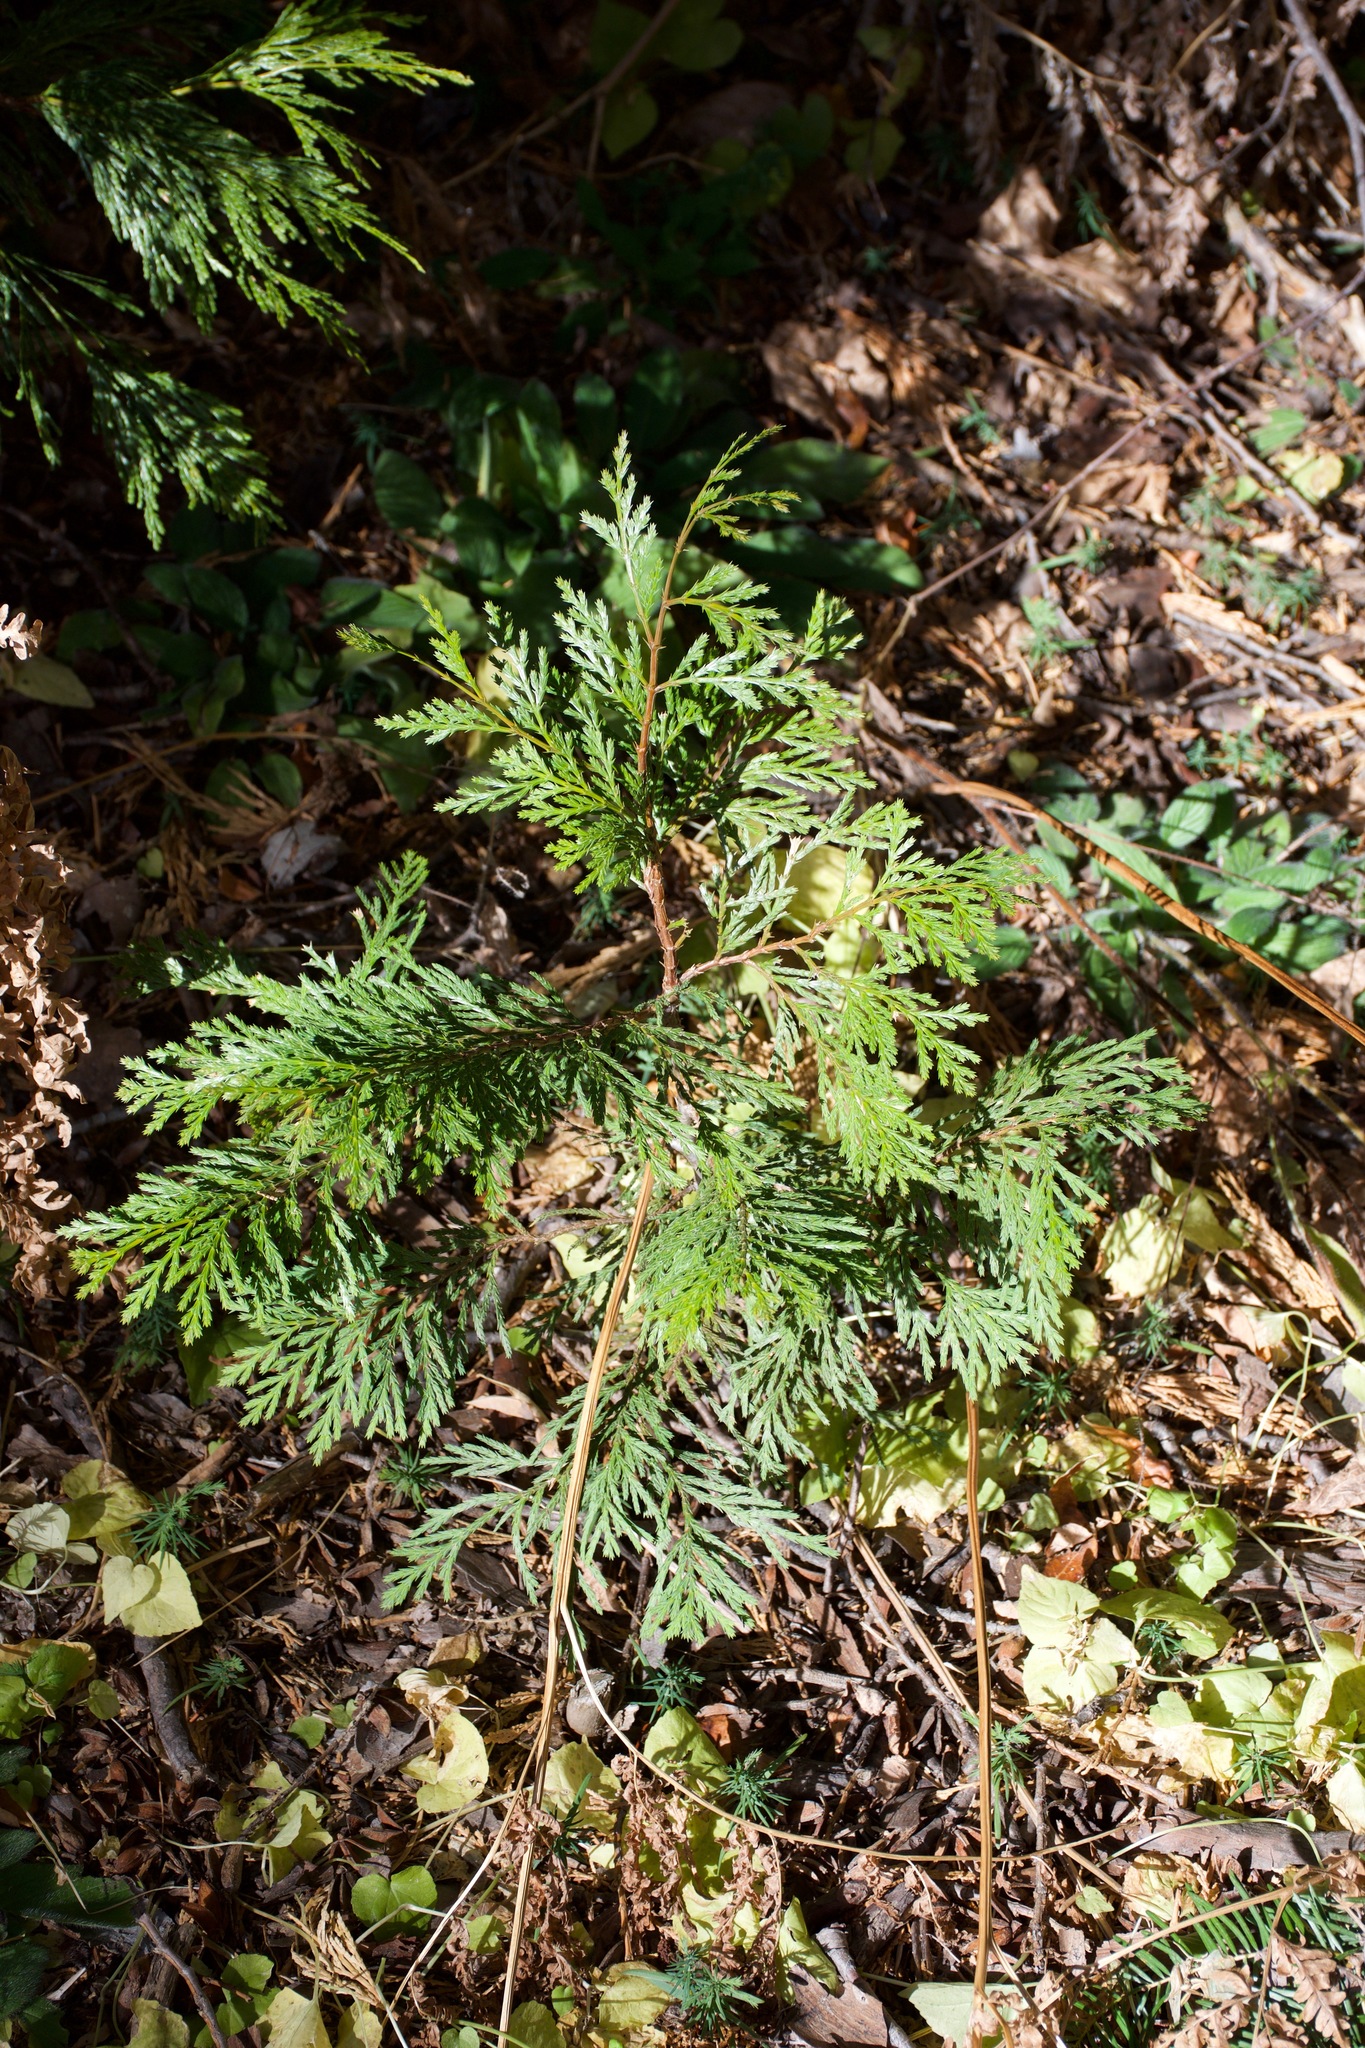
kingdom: Plantae
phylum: Tracheophyta
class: Pinopsida
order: Pinales
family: Cupressaceae
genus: Calocedrus
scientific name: Calocedrus decurrens
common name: Californian incense-cedar
